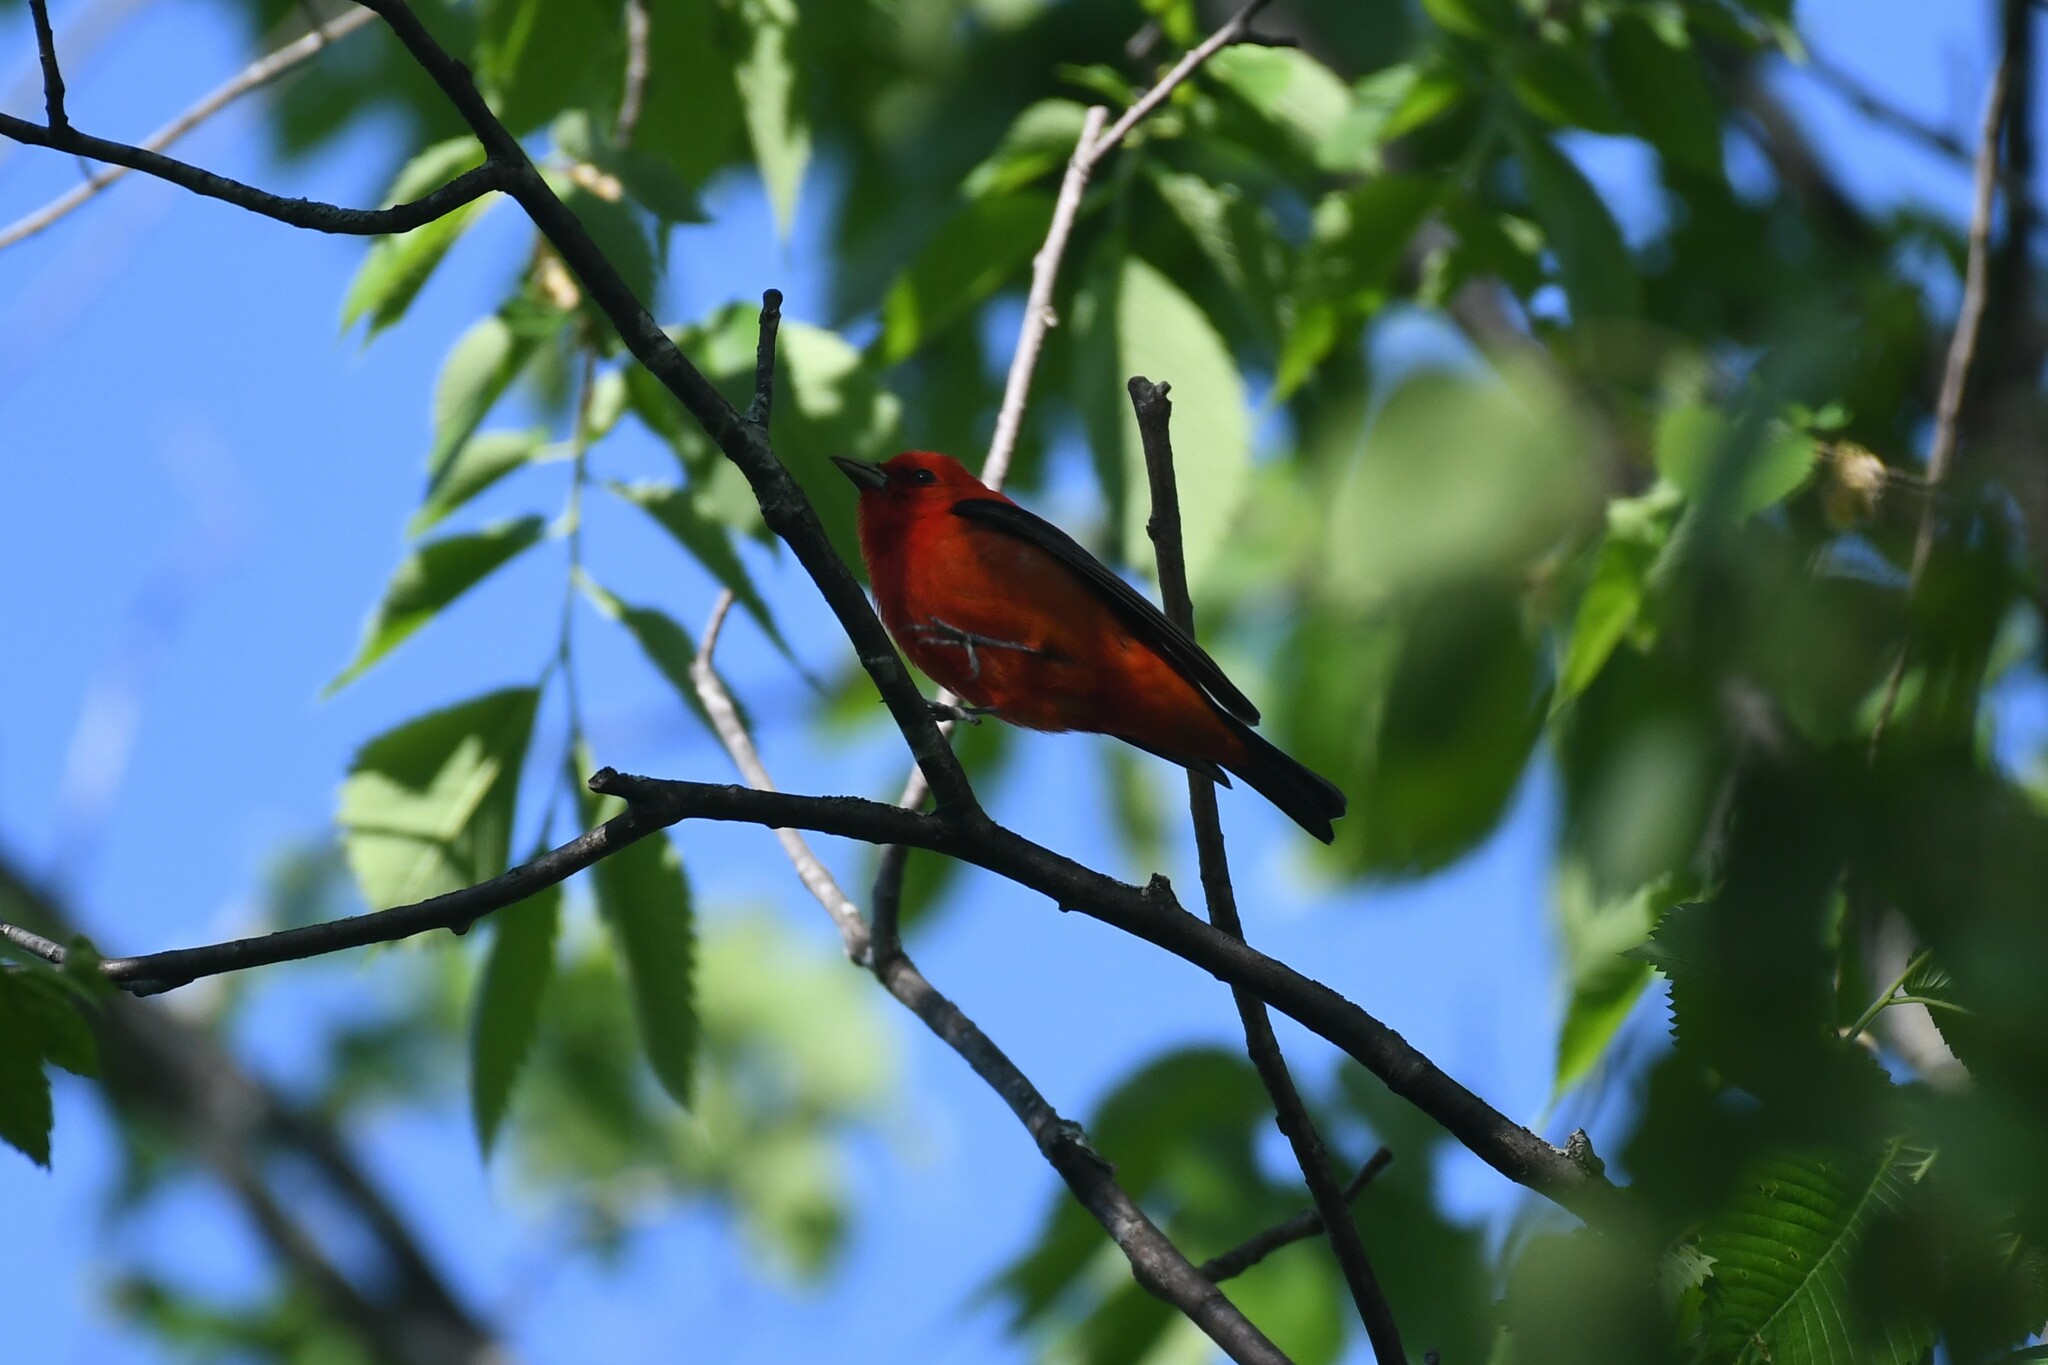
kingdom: Animalia
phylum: Chordata
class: Aves
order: Passeriformes
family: Cardinalidae
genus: Piranga
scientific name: Piranga olivacea
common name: Scarlet tanager
